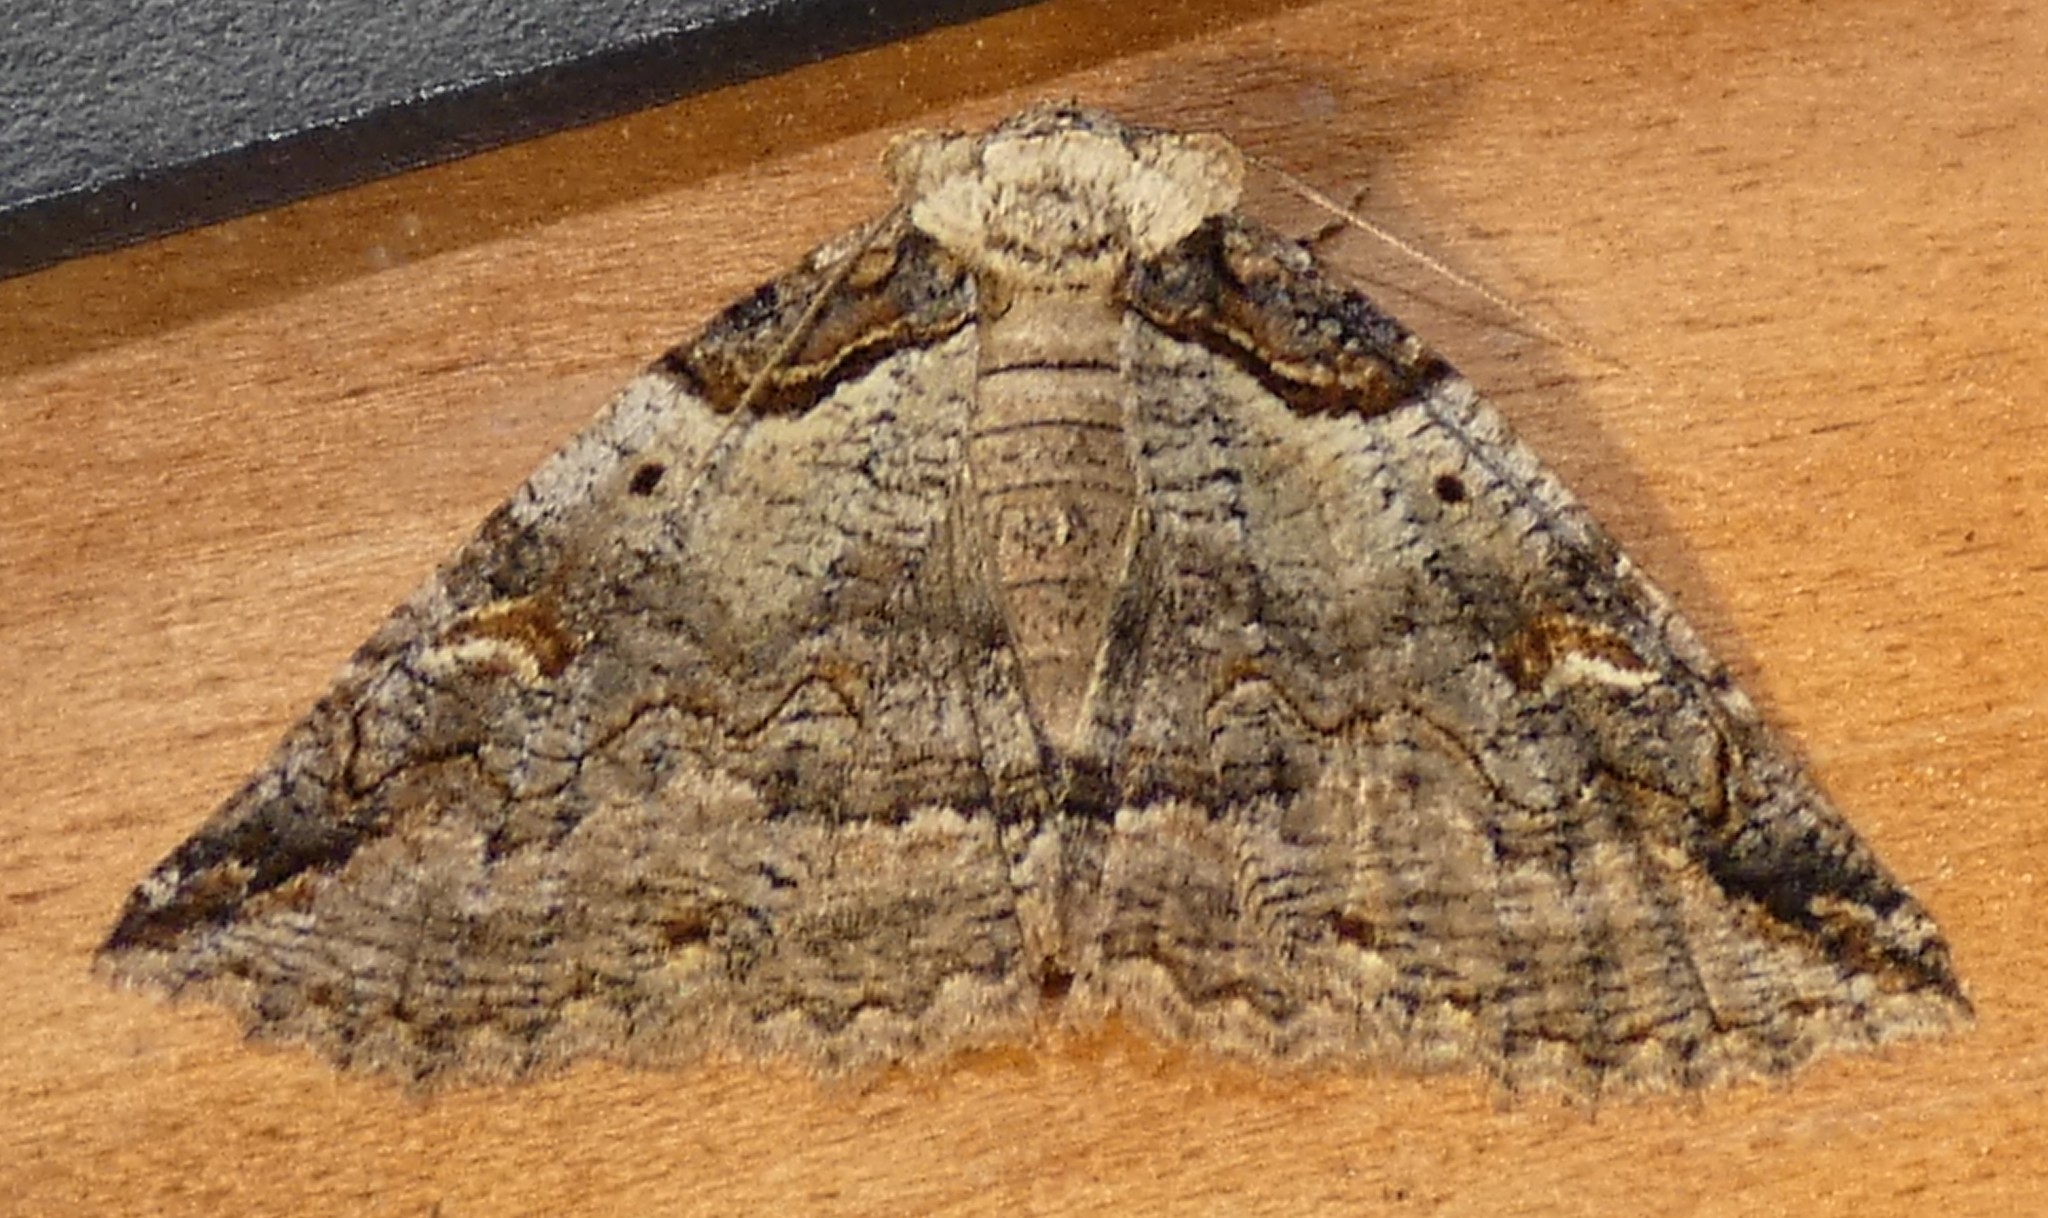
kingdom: Animalia
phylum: Arthropoda
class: Insecta
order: Lepidoptera
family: Erebidae
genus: Zale
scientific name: Zale intenta
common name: Intent zale moth
